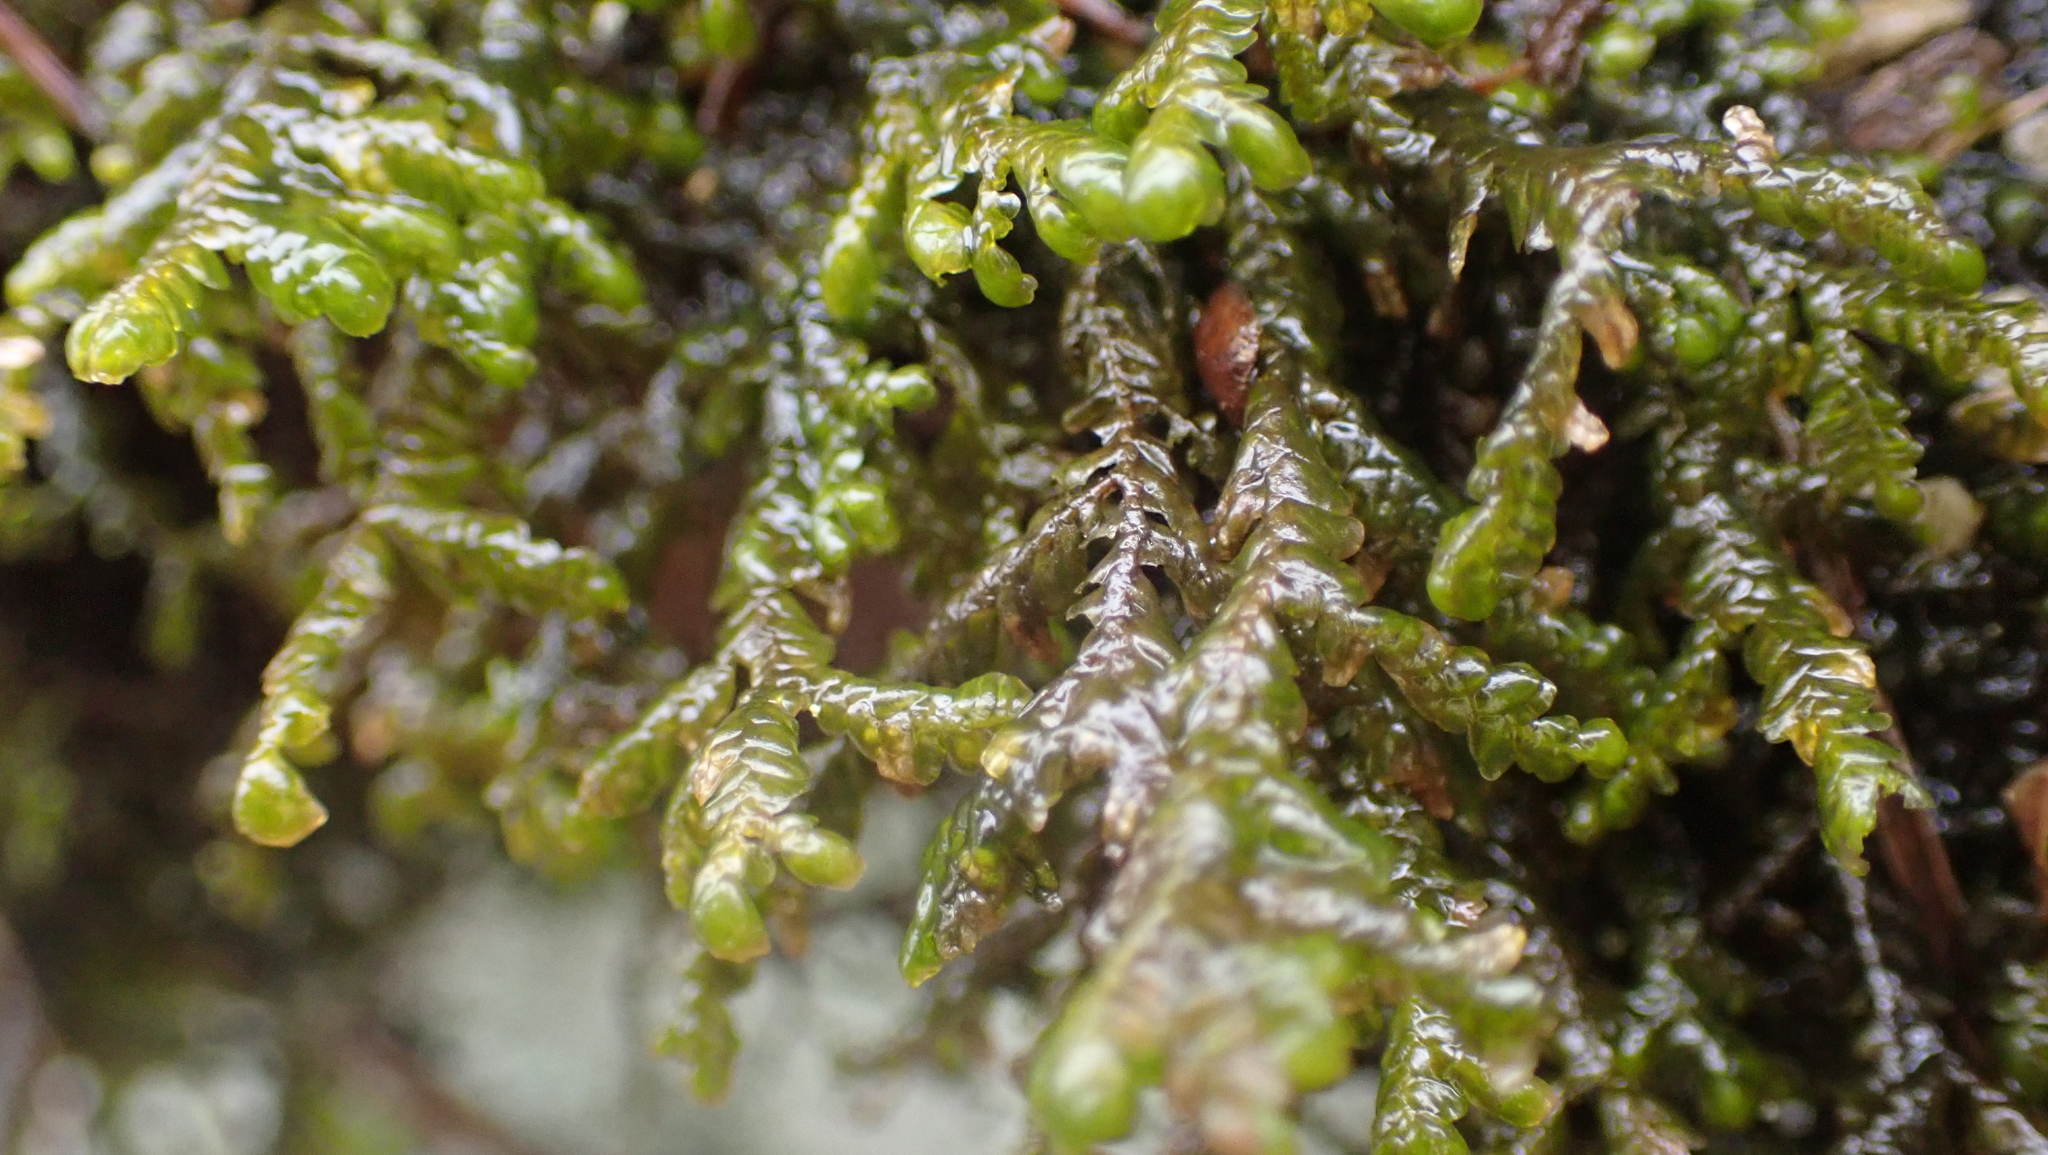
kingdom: Plantae
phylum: Marchantiophyta
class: Jungermanniopsida
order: Porellales
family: Porellaceae
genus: Porella
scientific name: Porella platyphylla
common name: Wall scalewort
